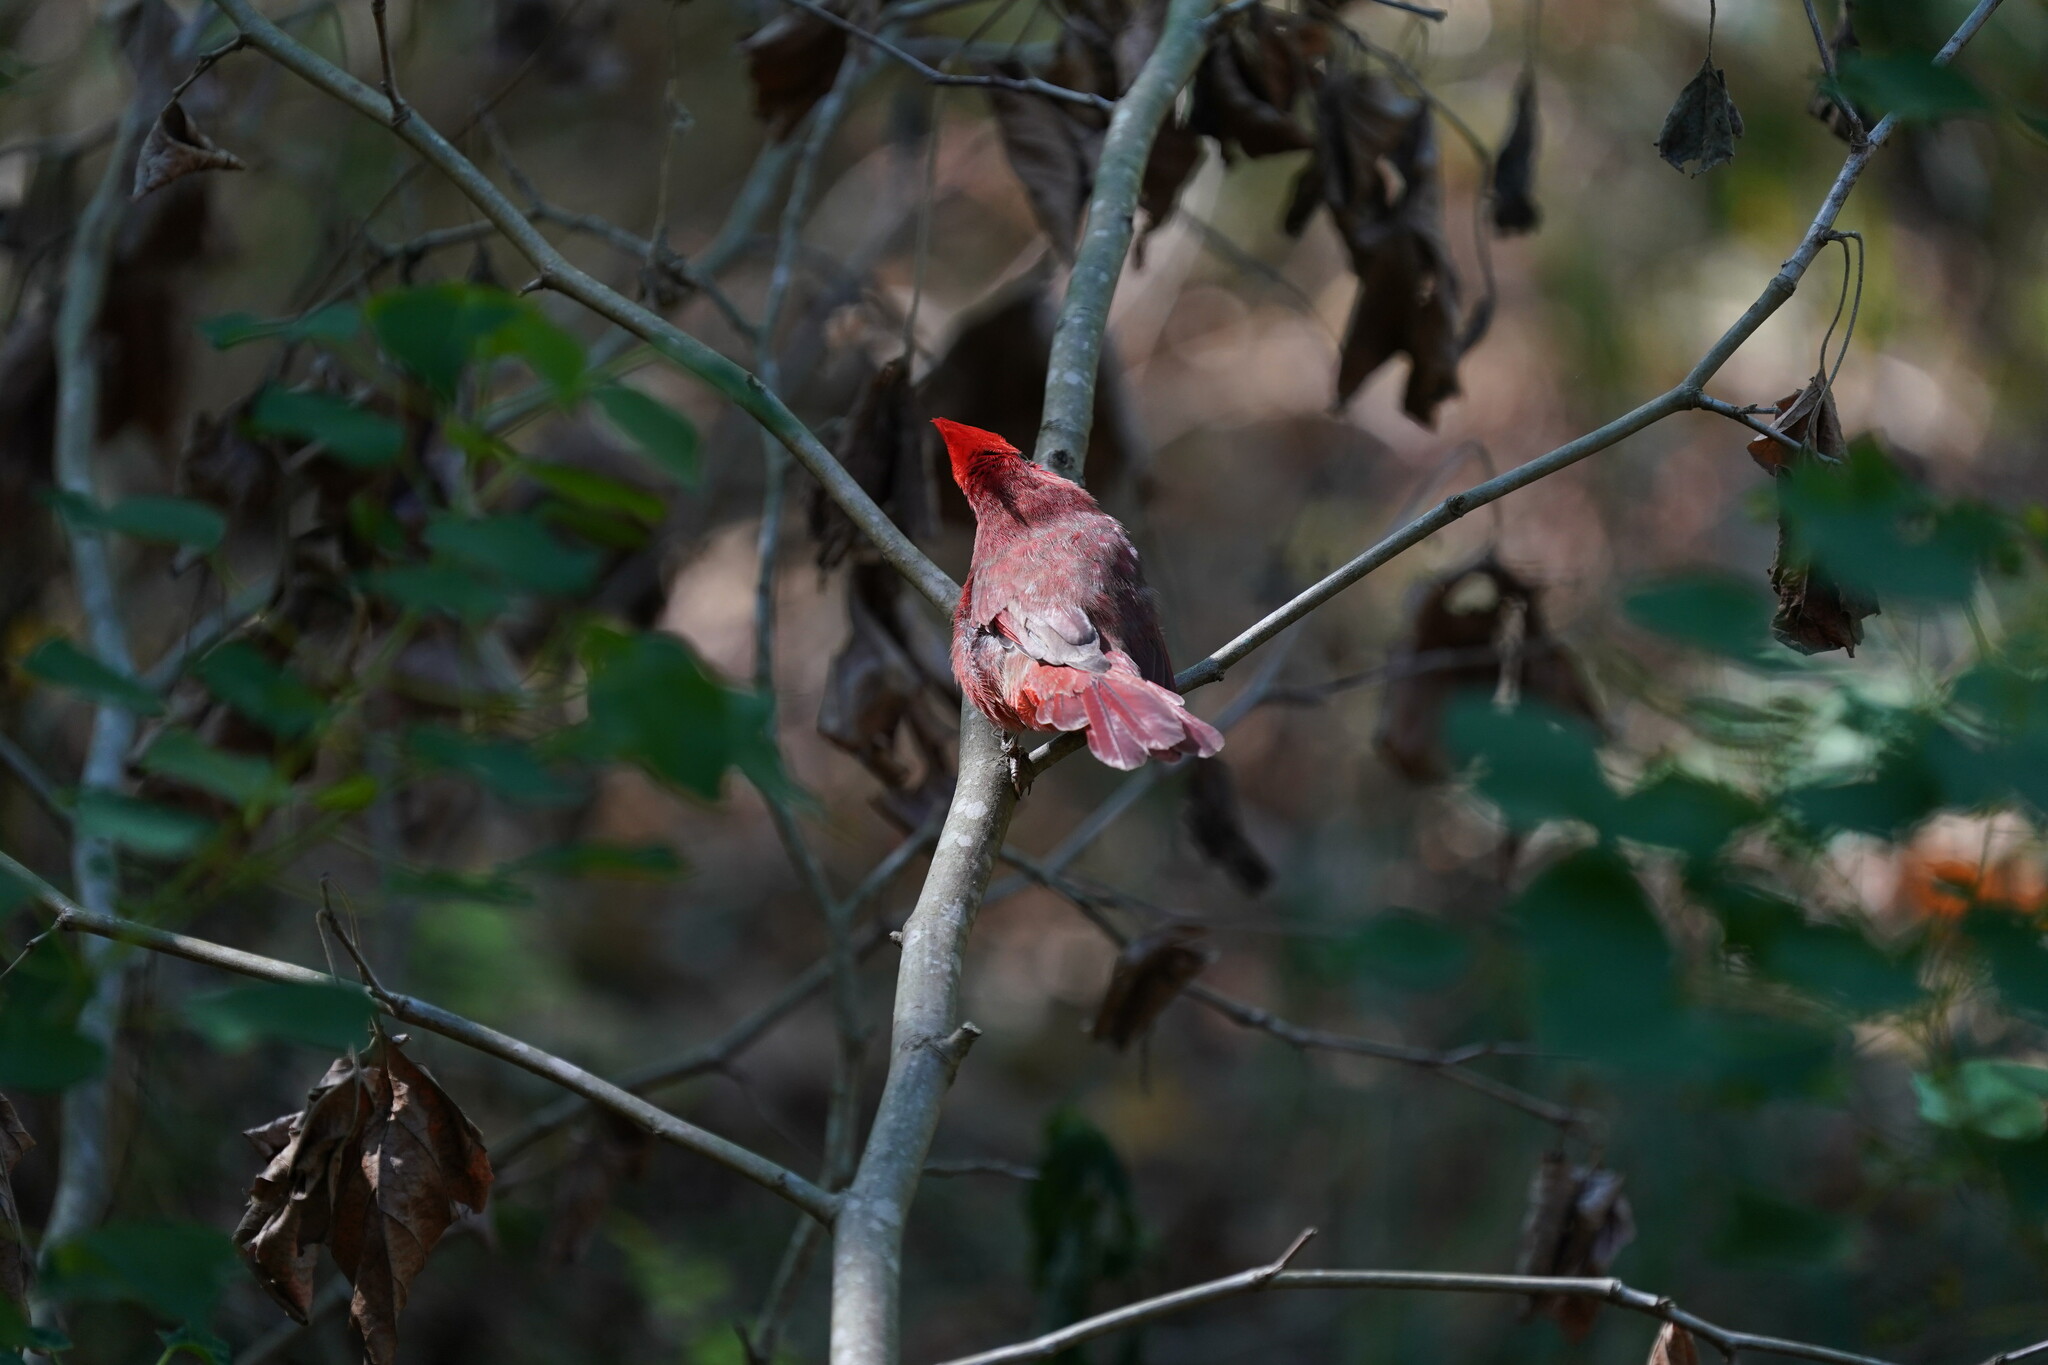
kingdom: Animalia
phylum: Chordata
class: Aves
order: Passeriformes
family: Cardinalidae
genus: Cardinalis
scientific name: Cardinalis cardinalis
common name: Northern cardinal
